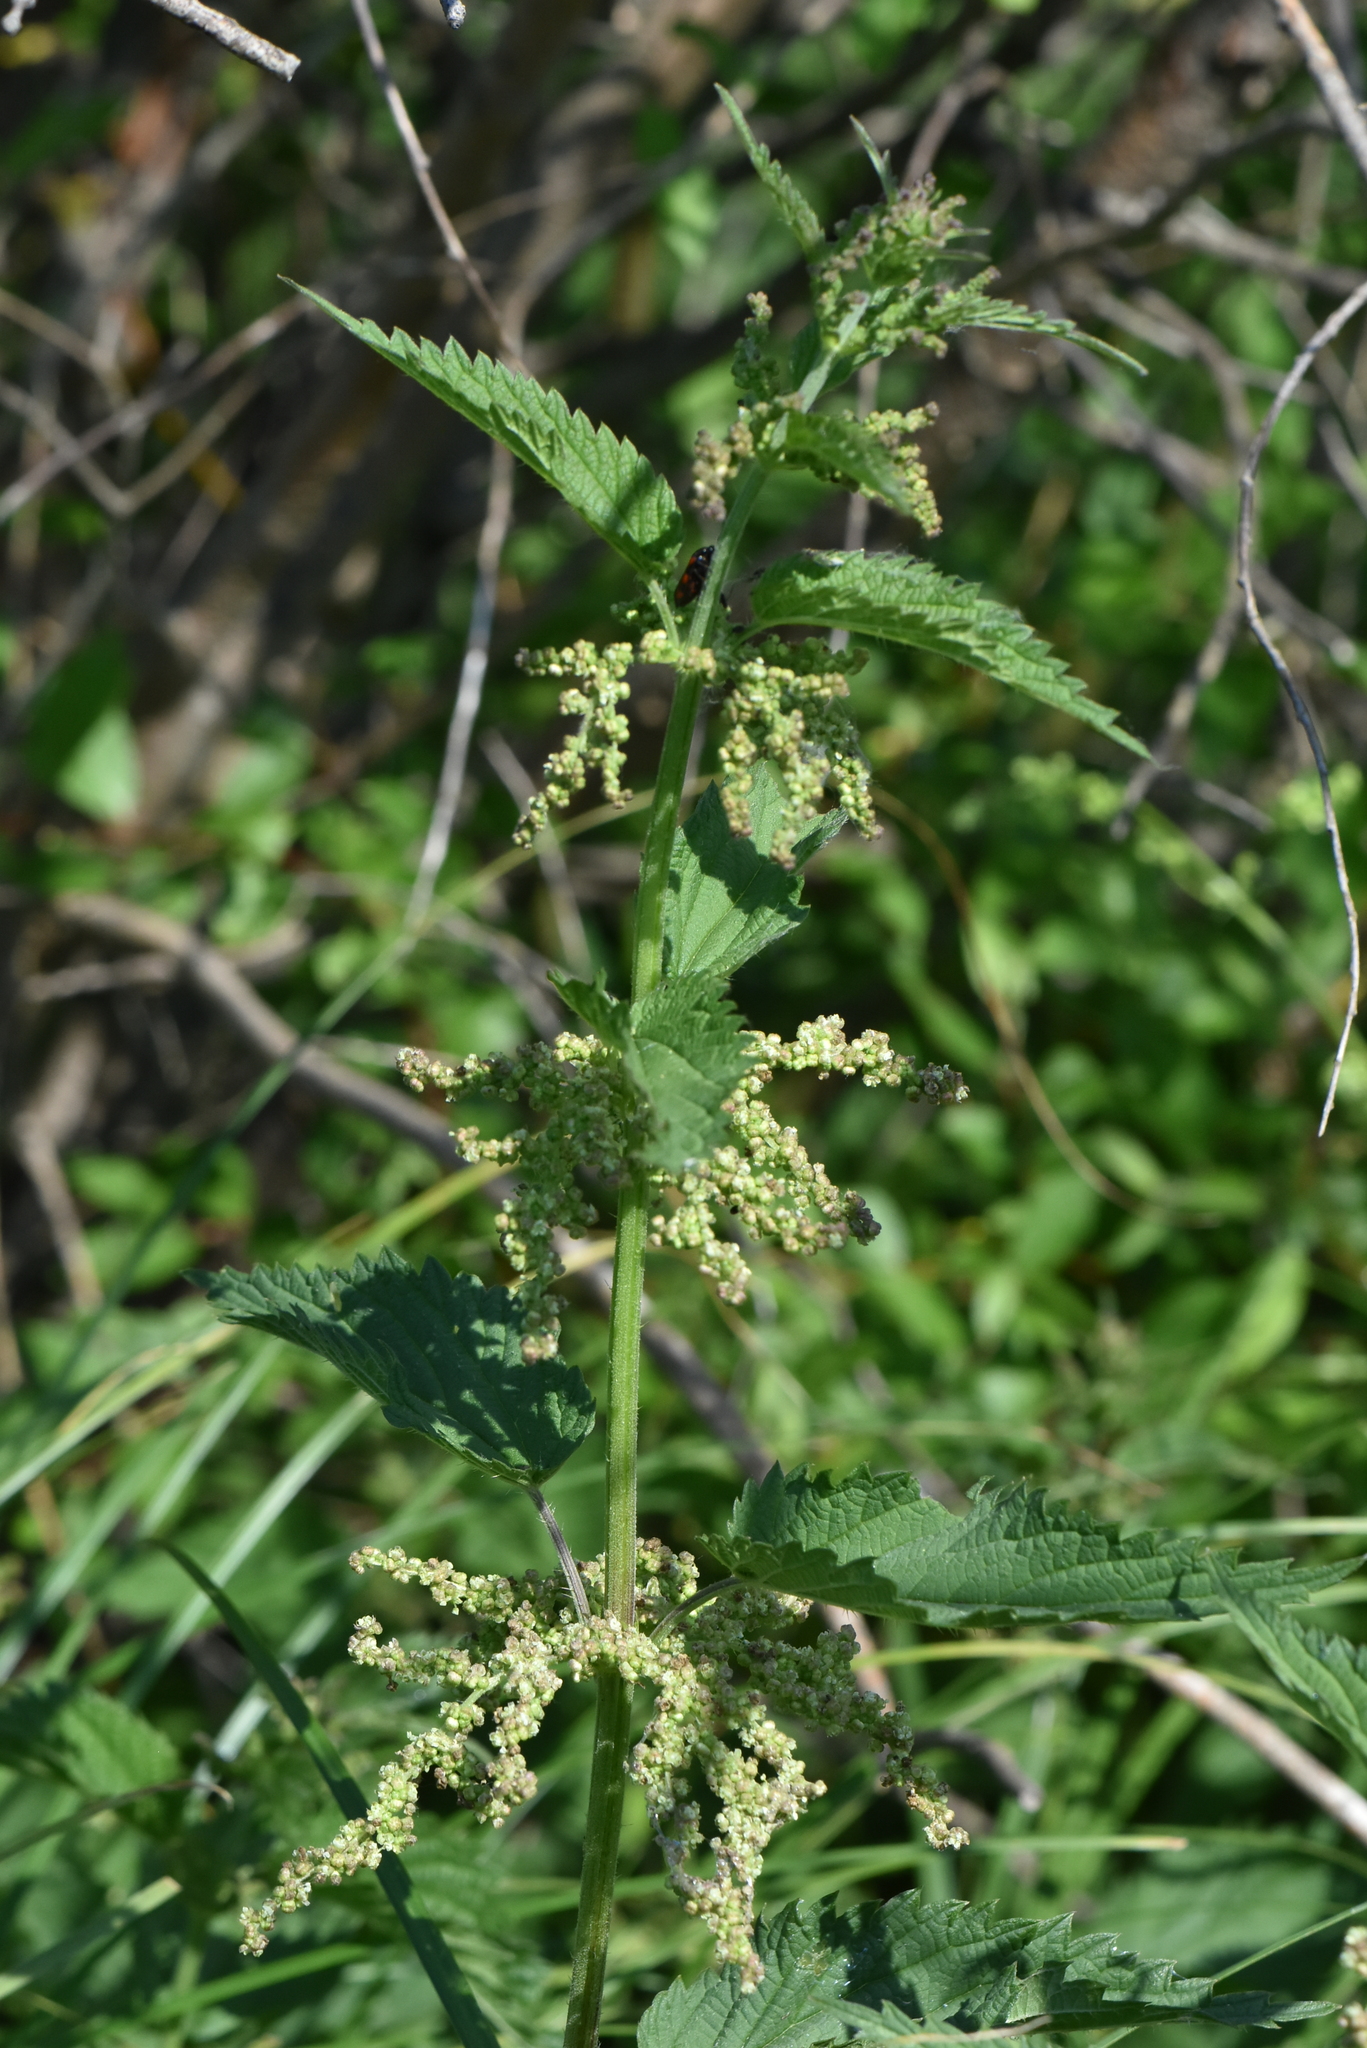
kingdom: Plantae
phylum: Tracheophyta
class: Magnoliopsida
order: Rosales
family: Urticaceae
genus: Urtica
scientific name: Urtica dioica
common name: Common nettle
